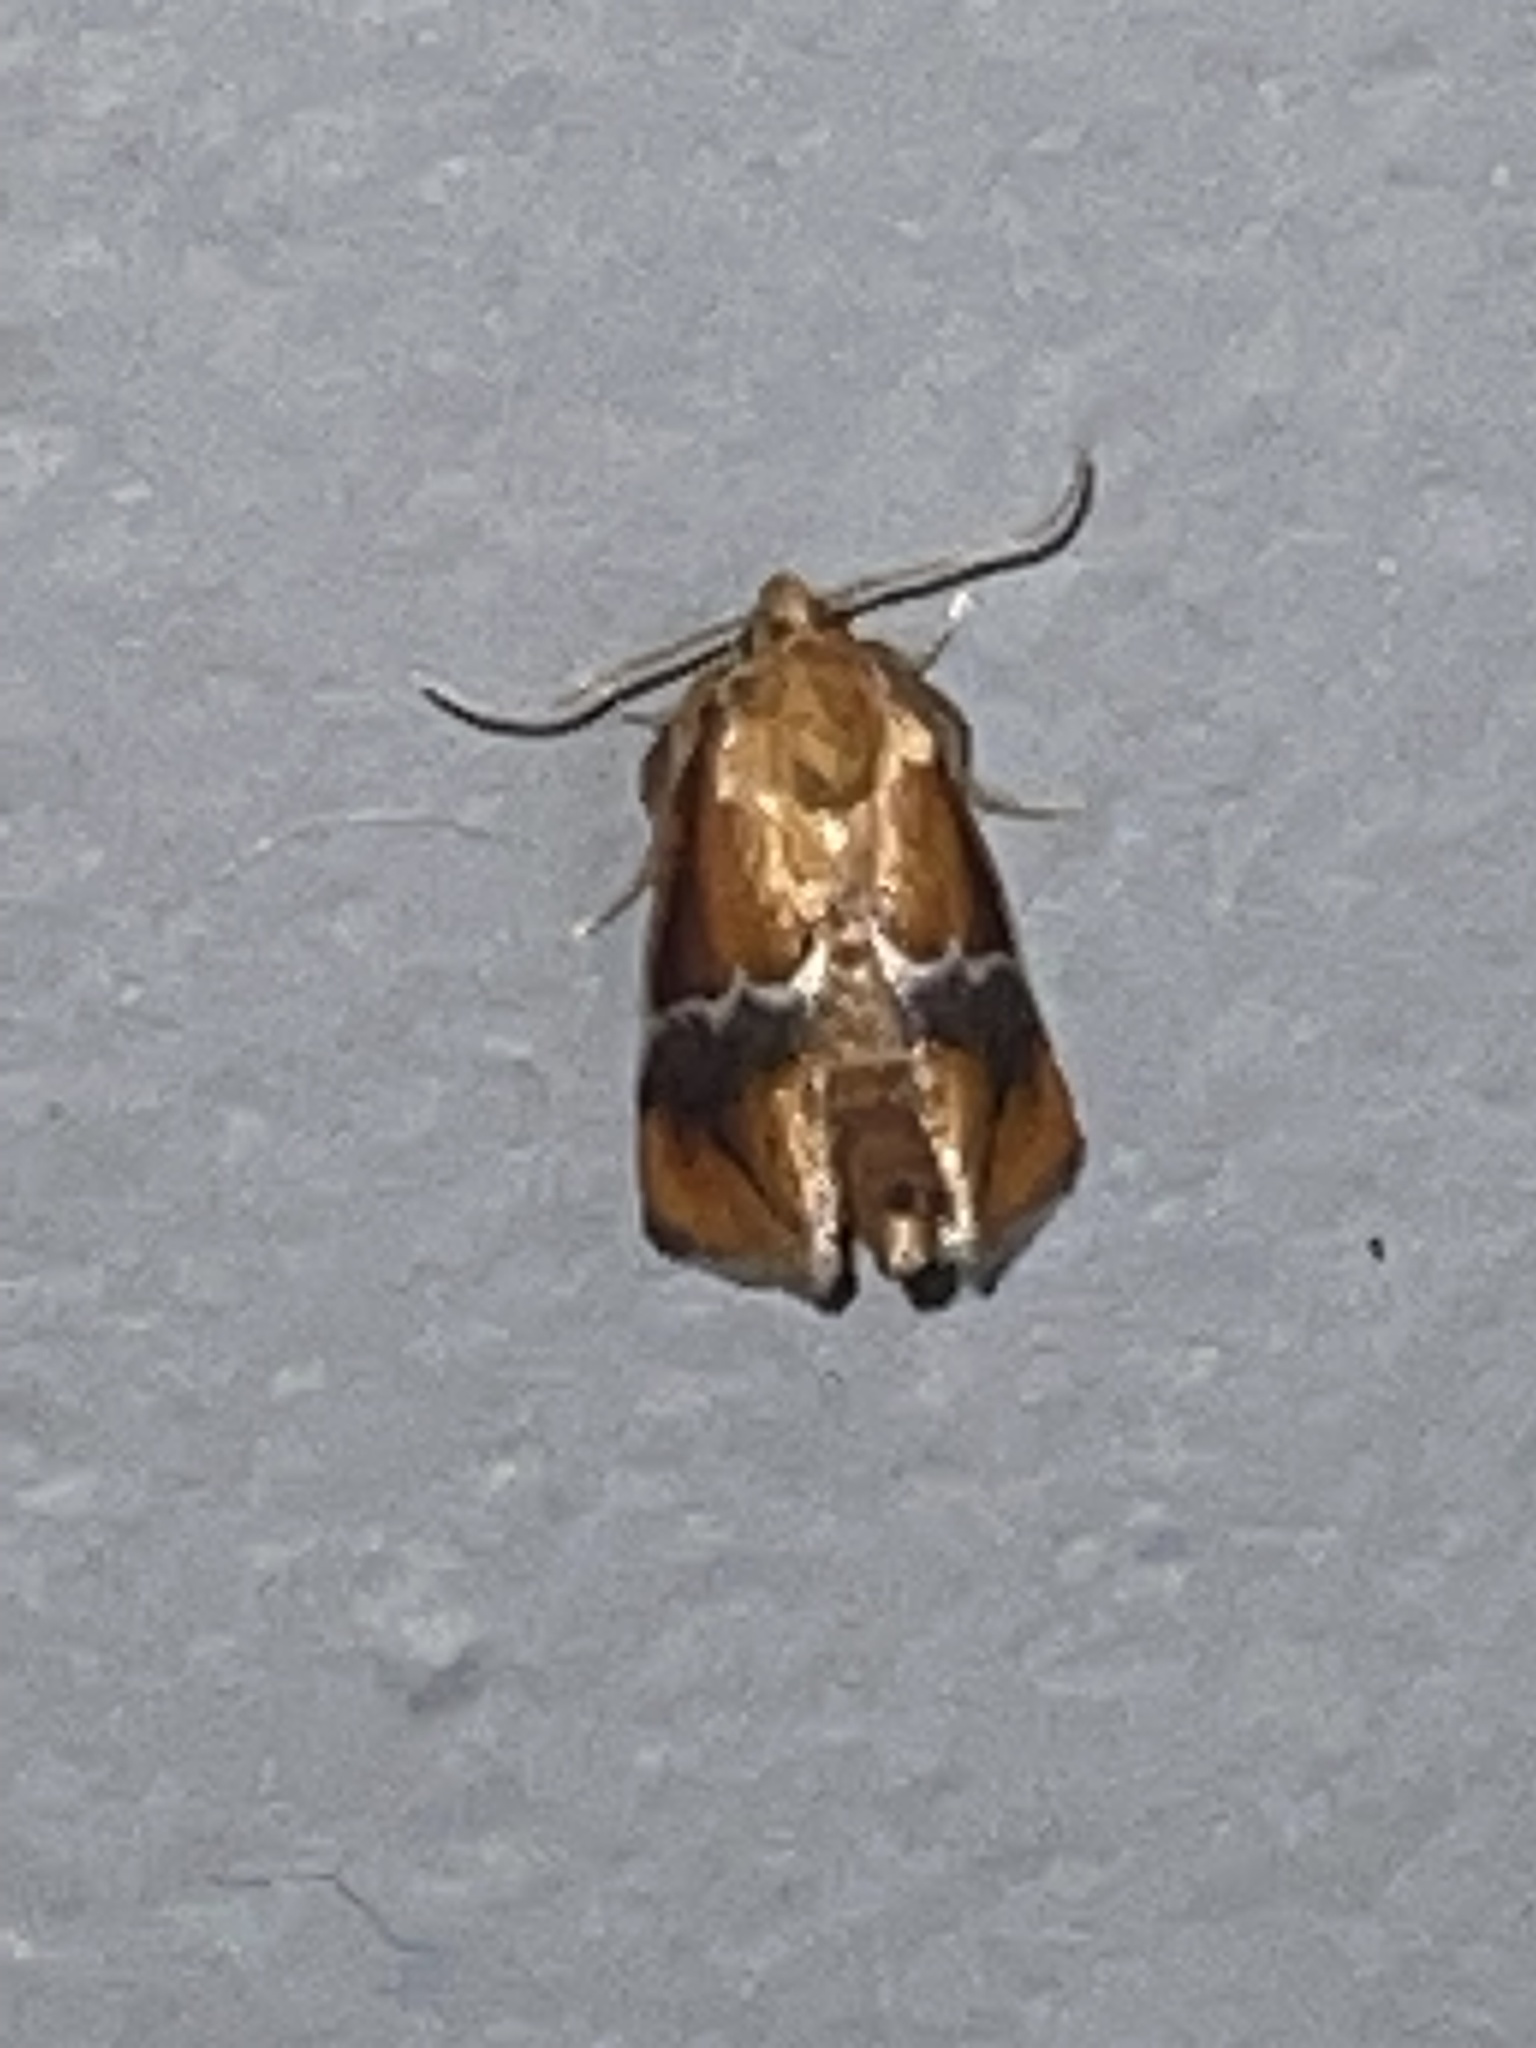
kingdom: Animalia
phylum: Arthropoda
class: Insecta
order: Lepidoptera
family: Limacodidae
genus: Lithacodes
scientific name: Lithacodes fasciola
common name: Yellow-shouldered slug moth
